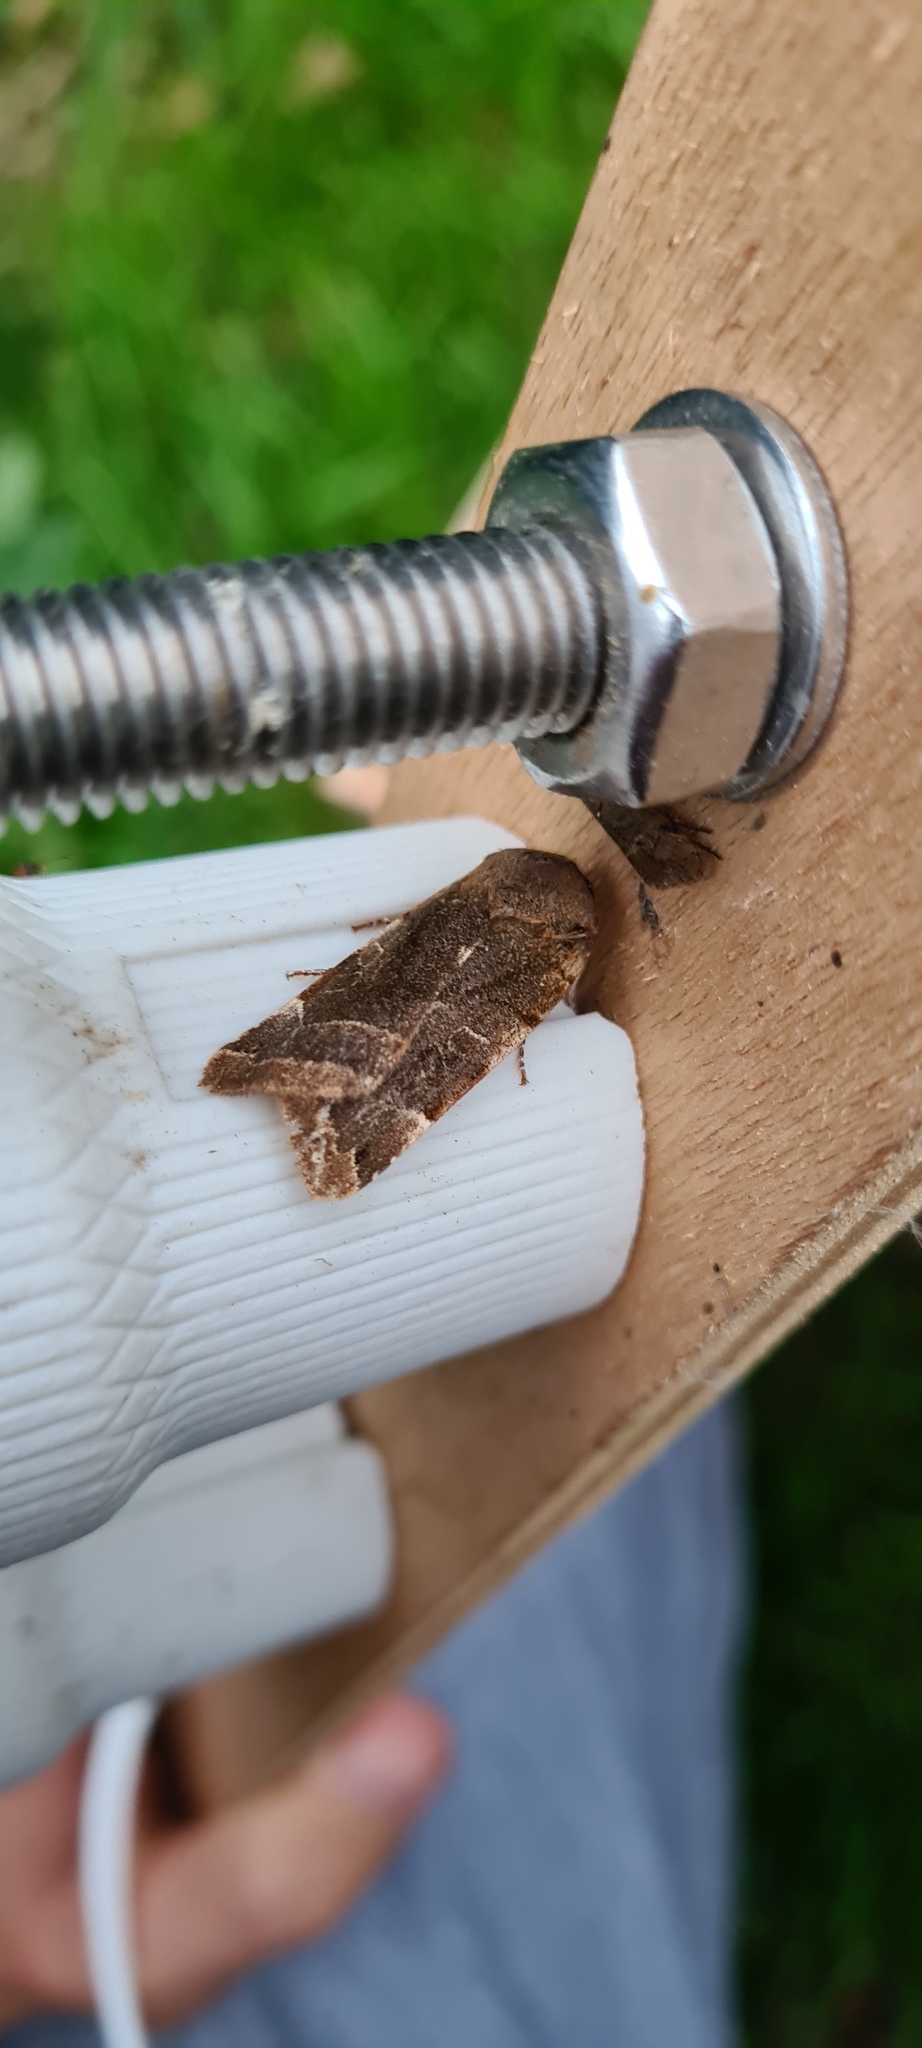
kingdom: Animalia
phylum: Arthropoda
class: Insecta
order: Lepidoptera
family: Noctuidae
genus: Noctua
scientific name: Noctua fimbriata
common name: Broad-bordered yellow underwing
